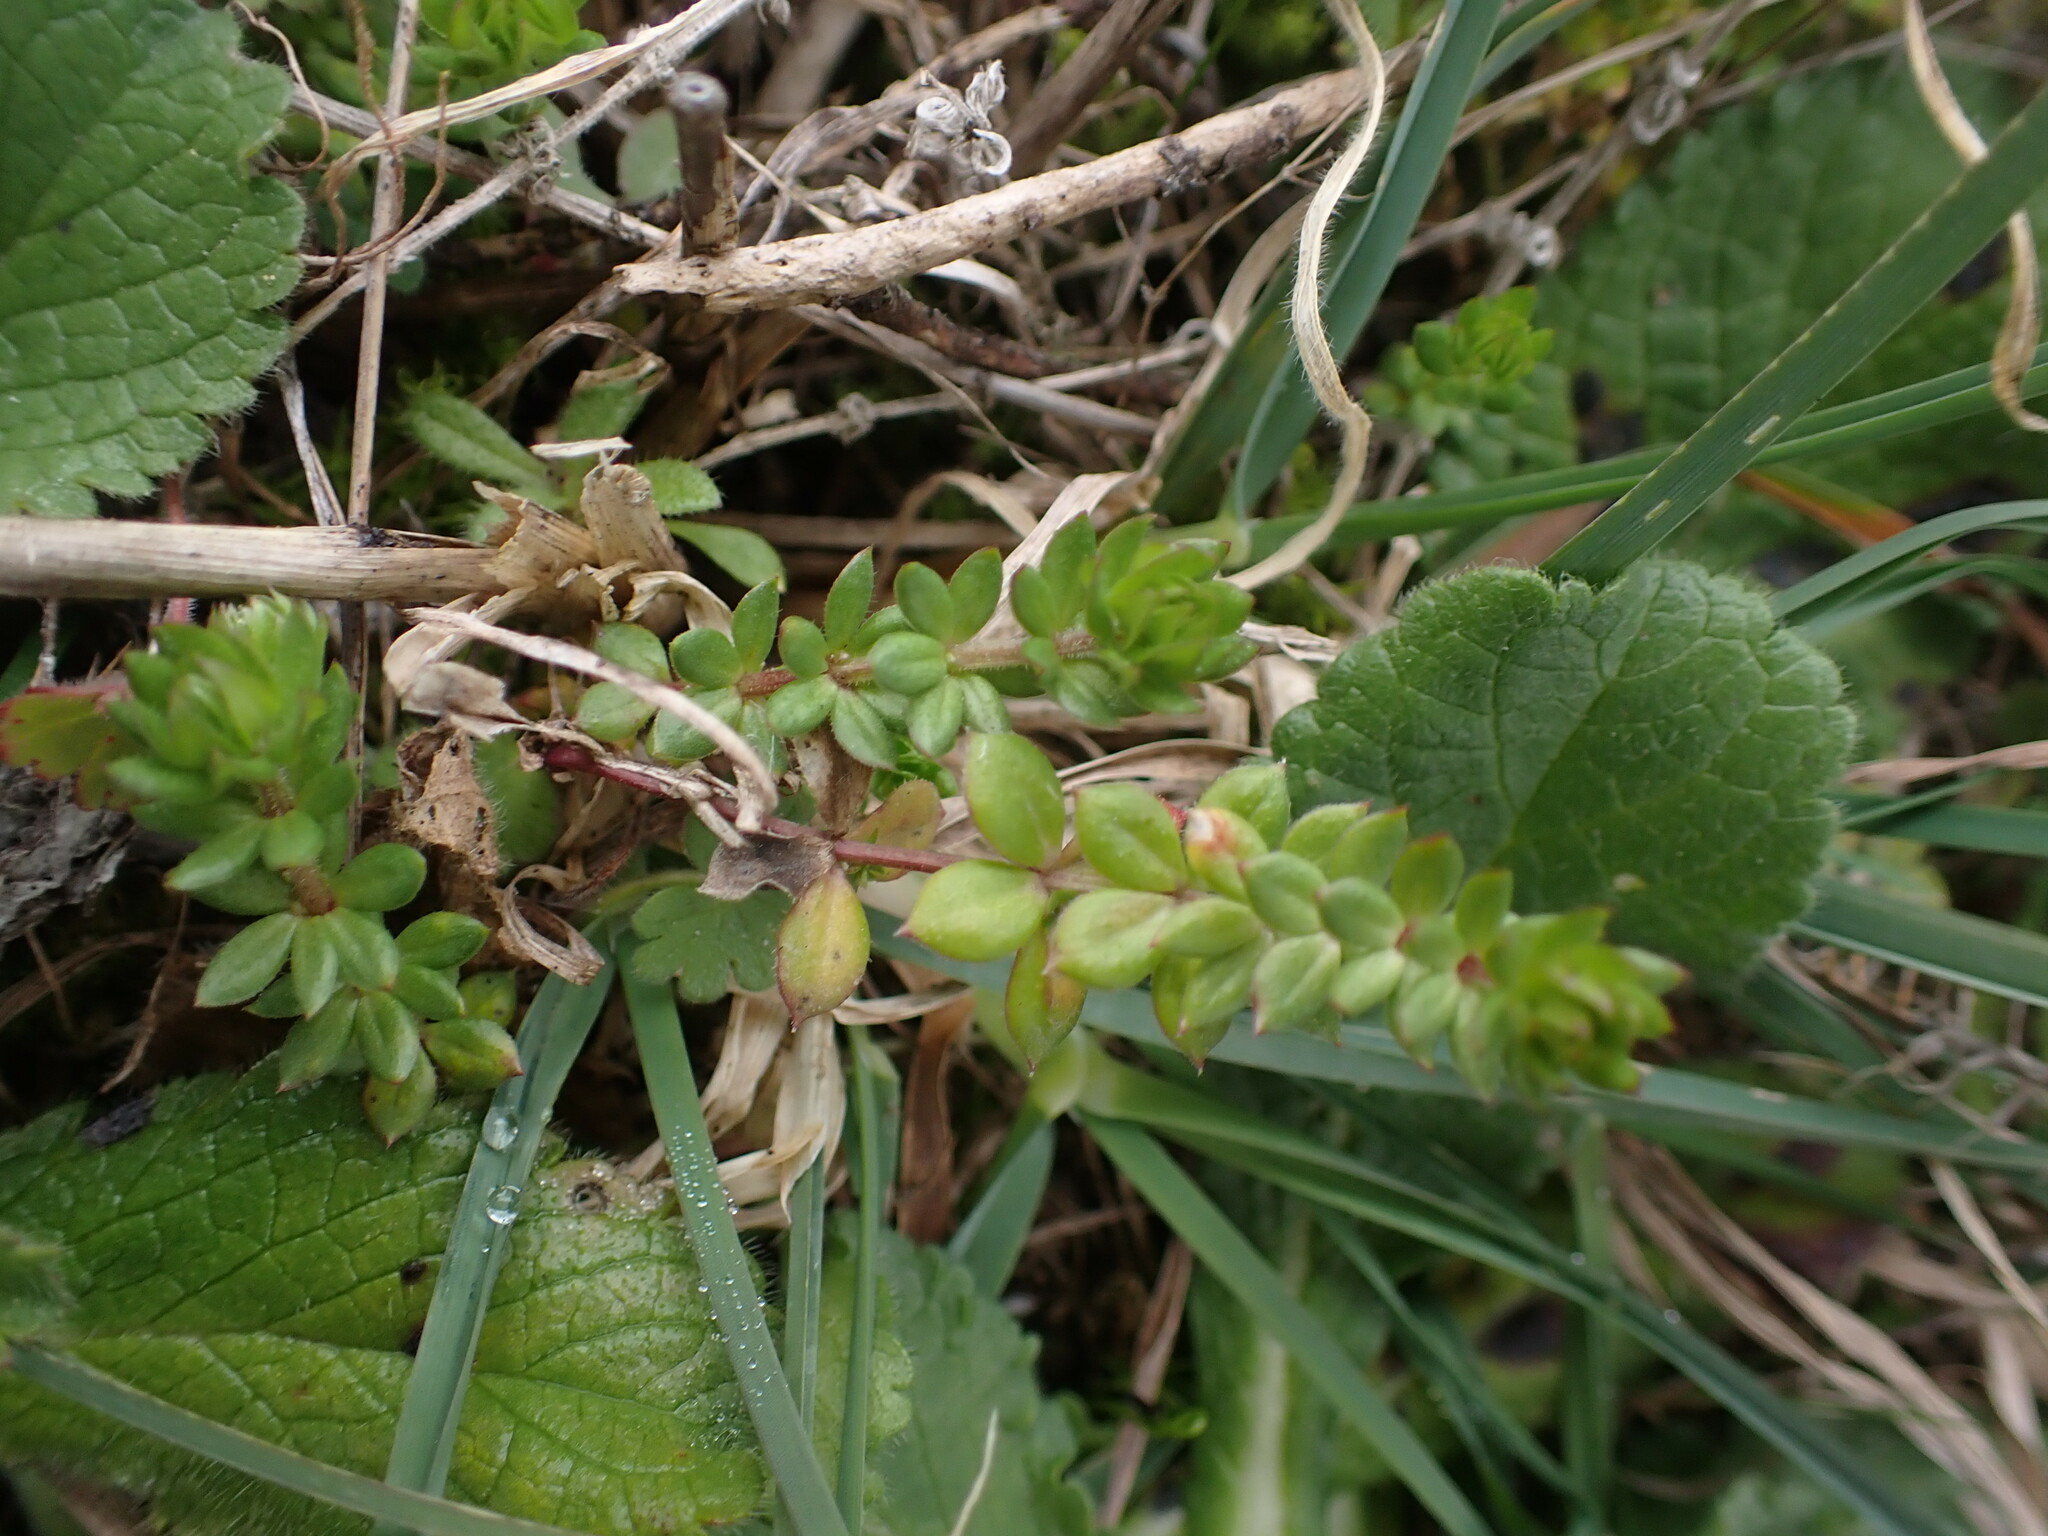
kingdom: Plantae
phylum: Tracheophyta
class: Magnoliopsida
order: Gentianales
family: Rubiaceae
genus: Sherardia
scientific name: Sherardia arvensis
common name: Field madder
